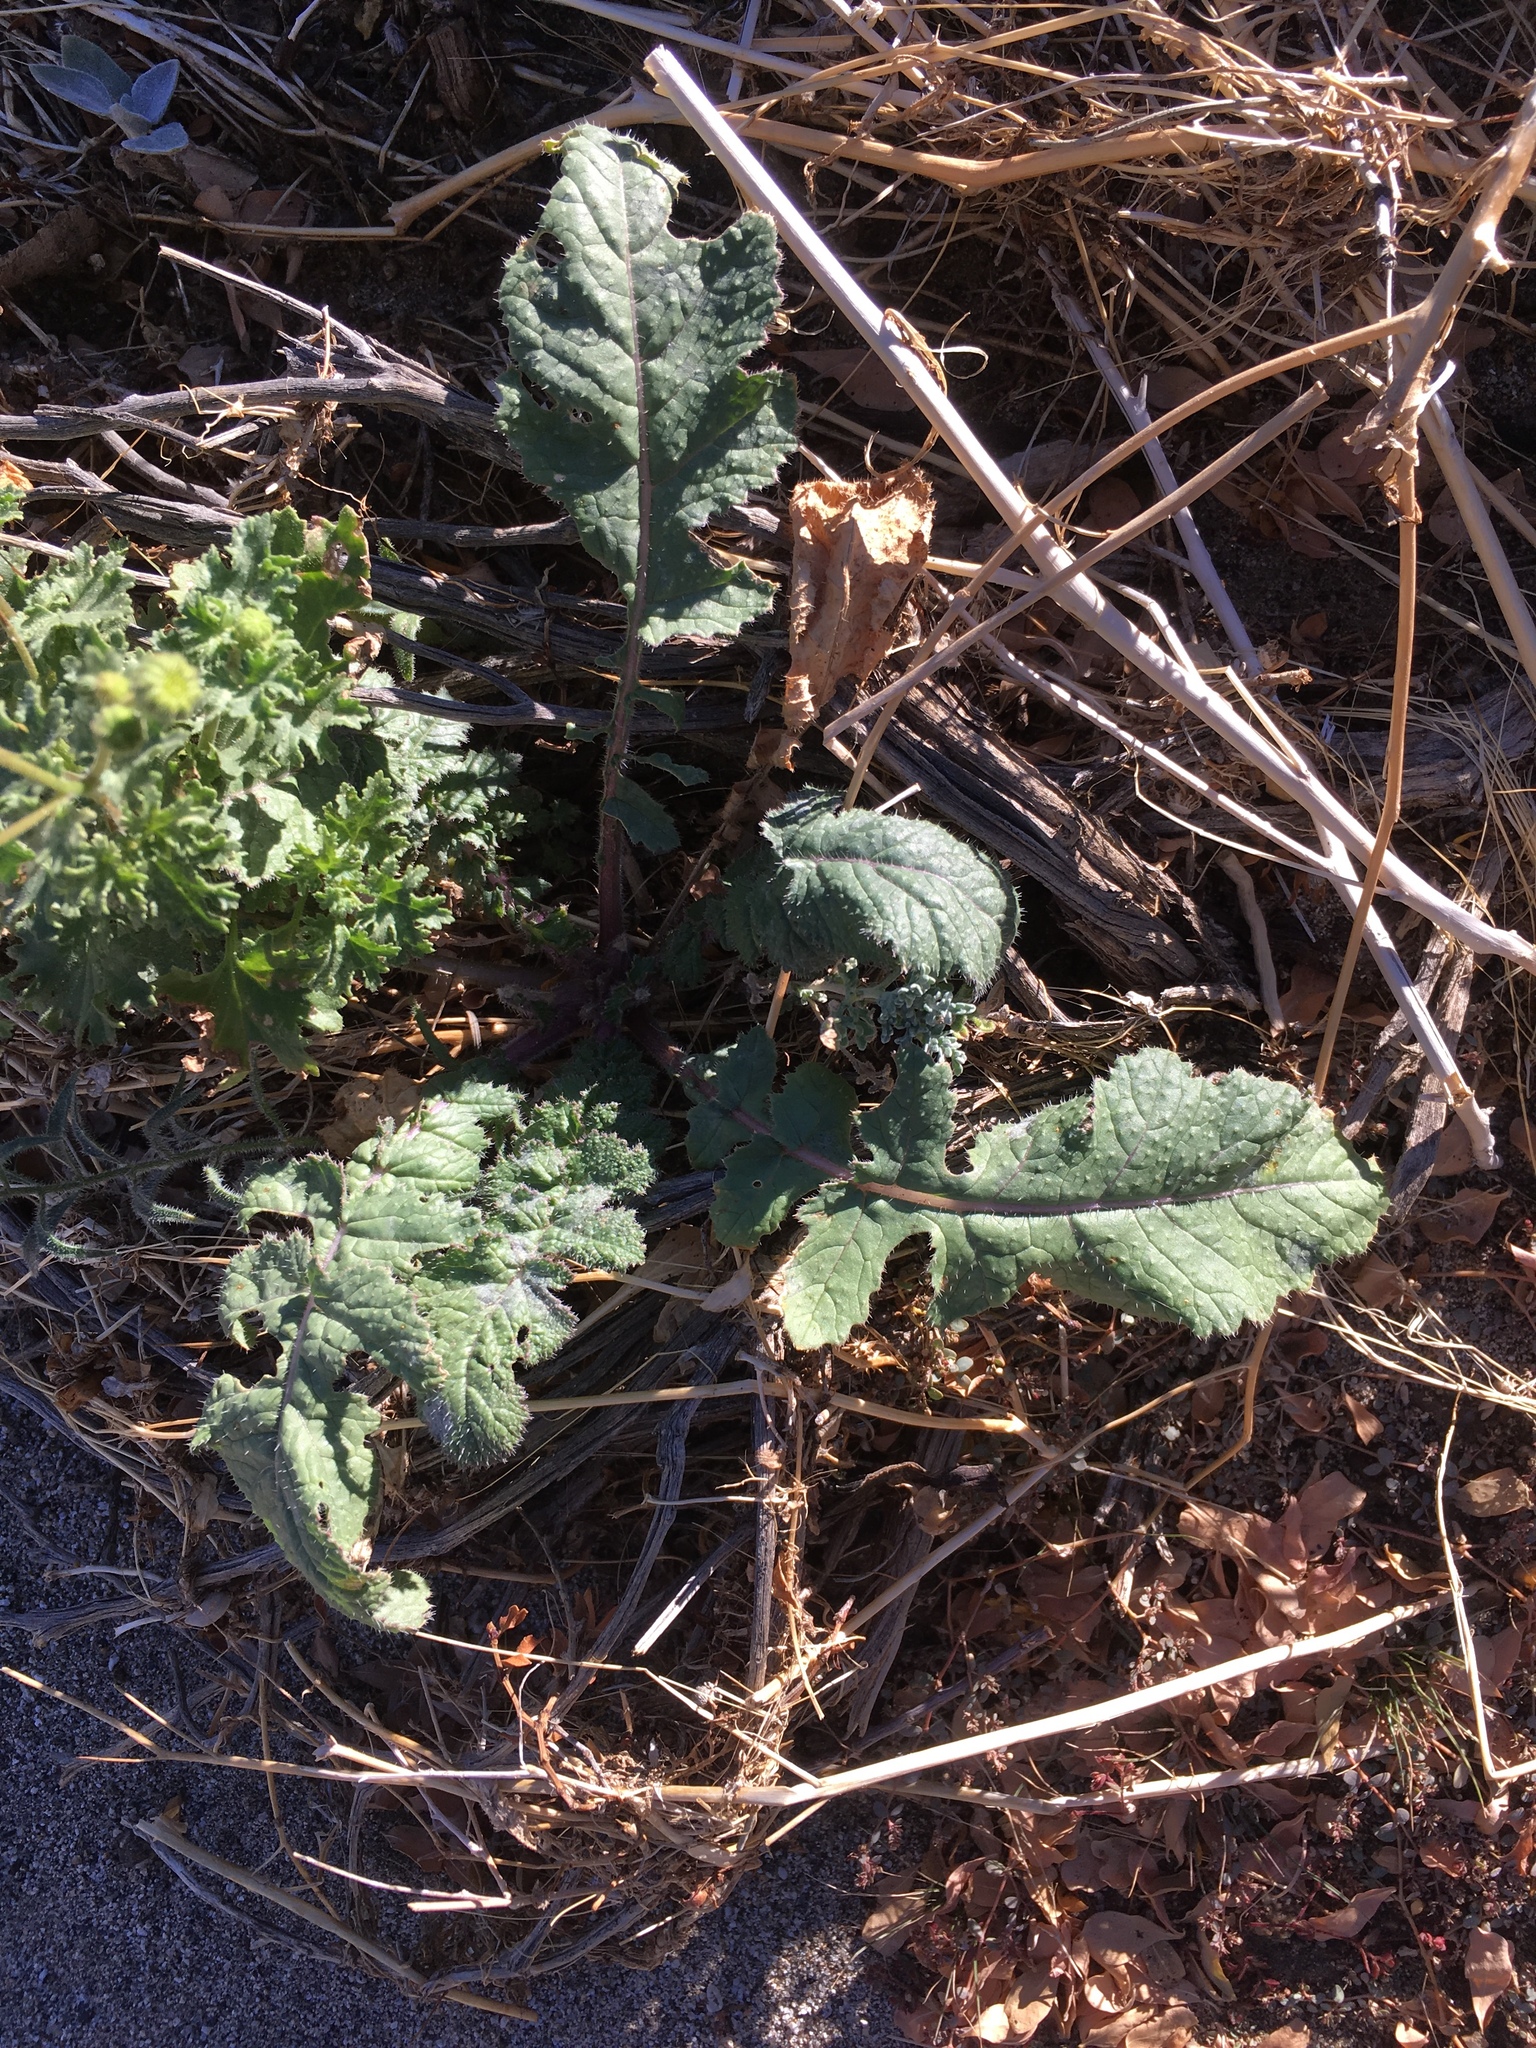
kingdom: Plantae
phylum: Tracheophyta
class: Magnoliopsida
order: Brassicales
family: Brassicaceae
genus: Brassica
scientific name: Brassica tournefortii
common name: Pale cabbage
